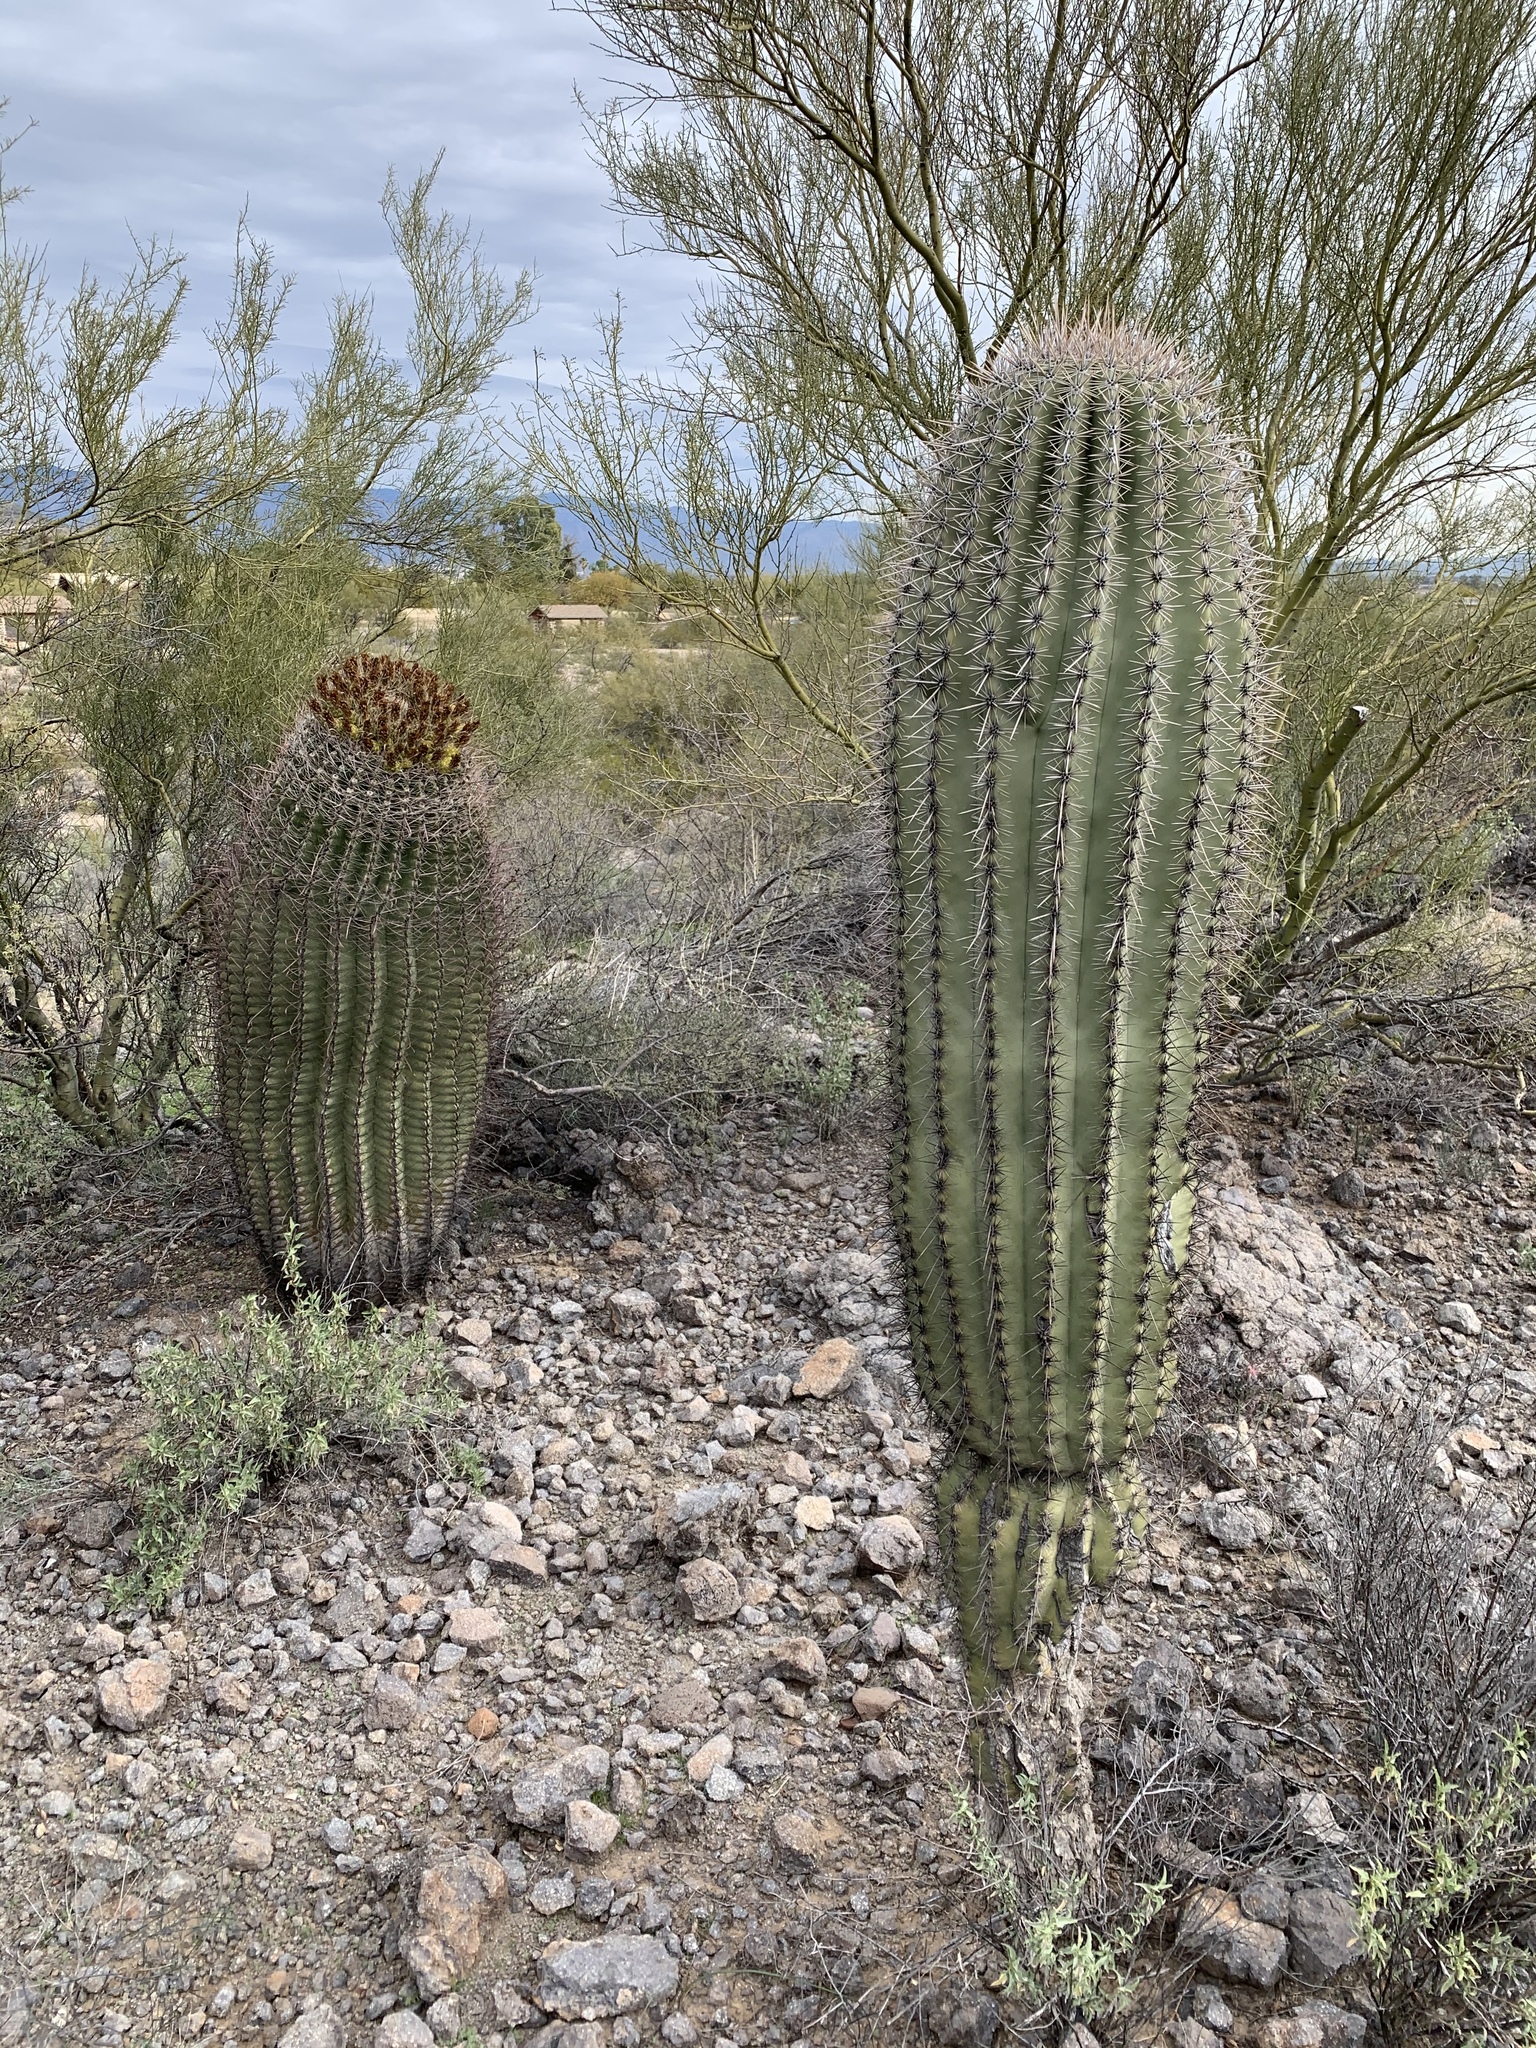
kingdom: Plantae
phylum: Tracheophyta
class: Magnoliopsida
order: Caryophyllales
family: Cactaceae
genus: Carnegiea
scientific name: Carnegiea gigantea
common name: Saguaro
